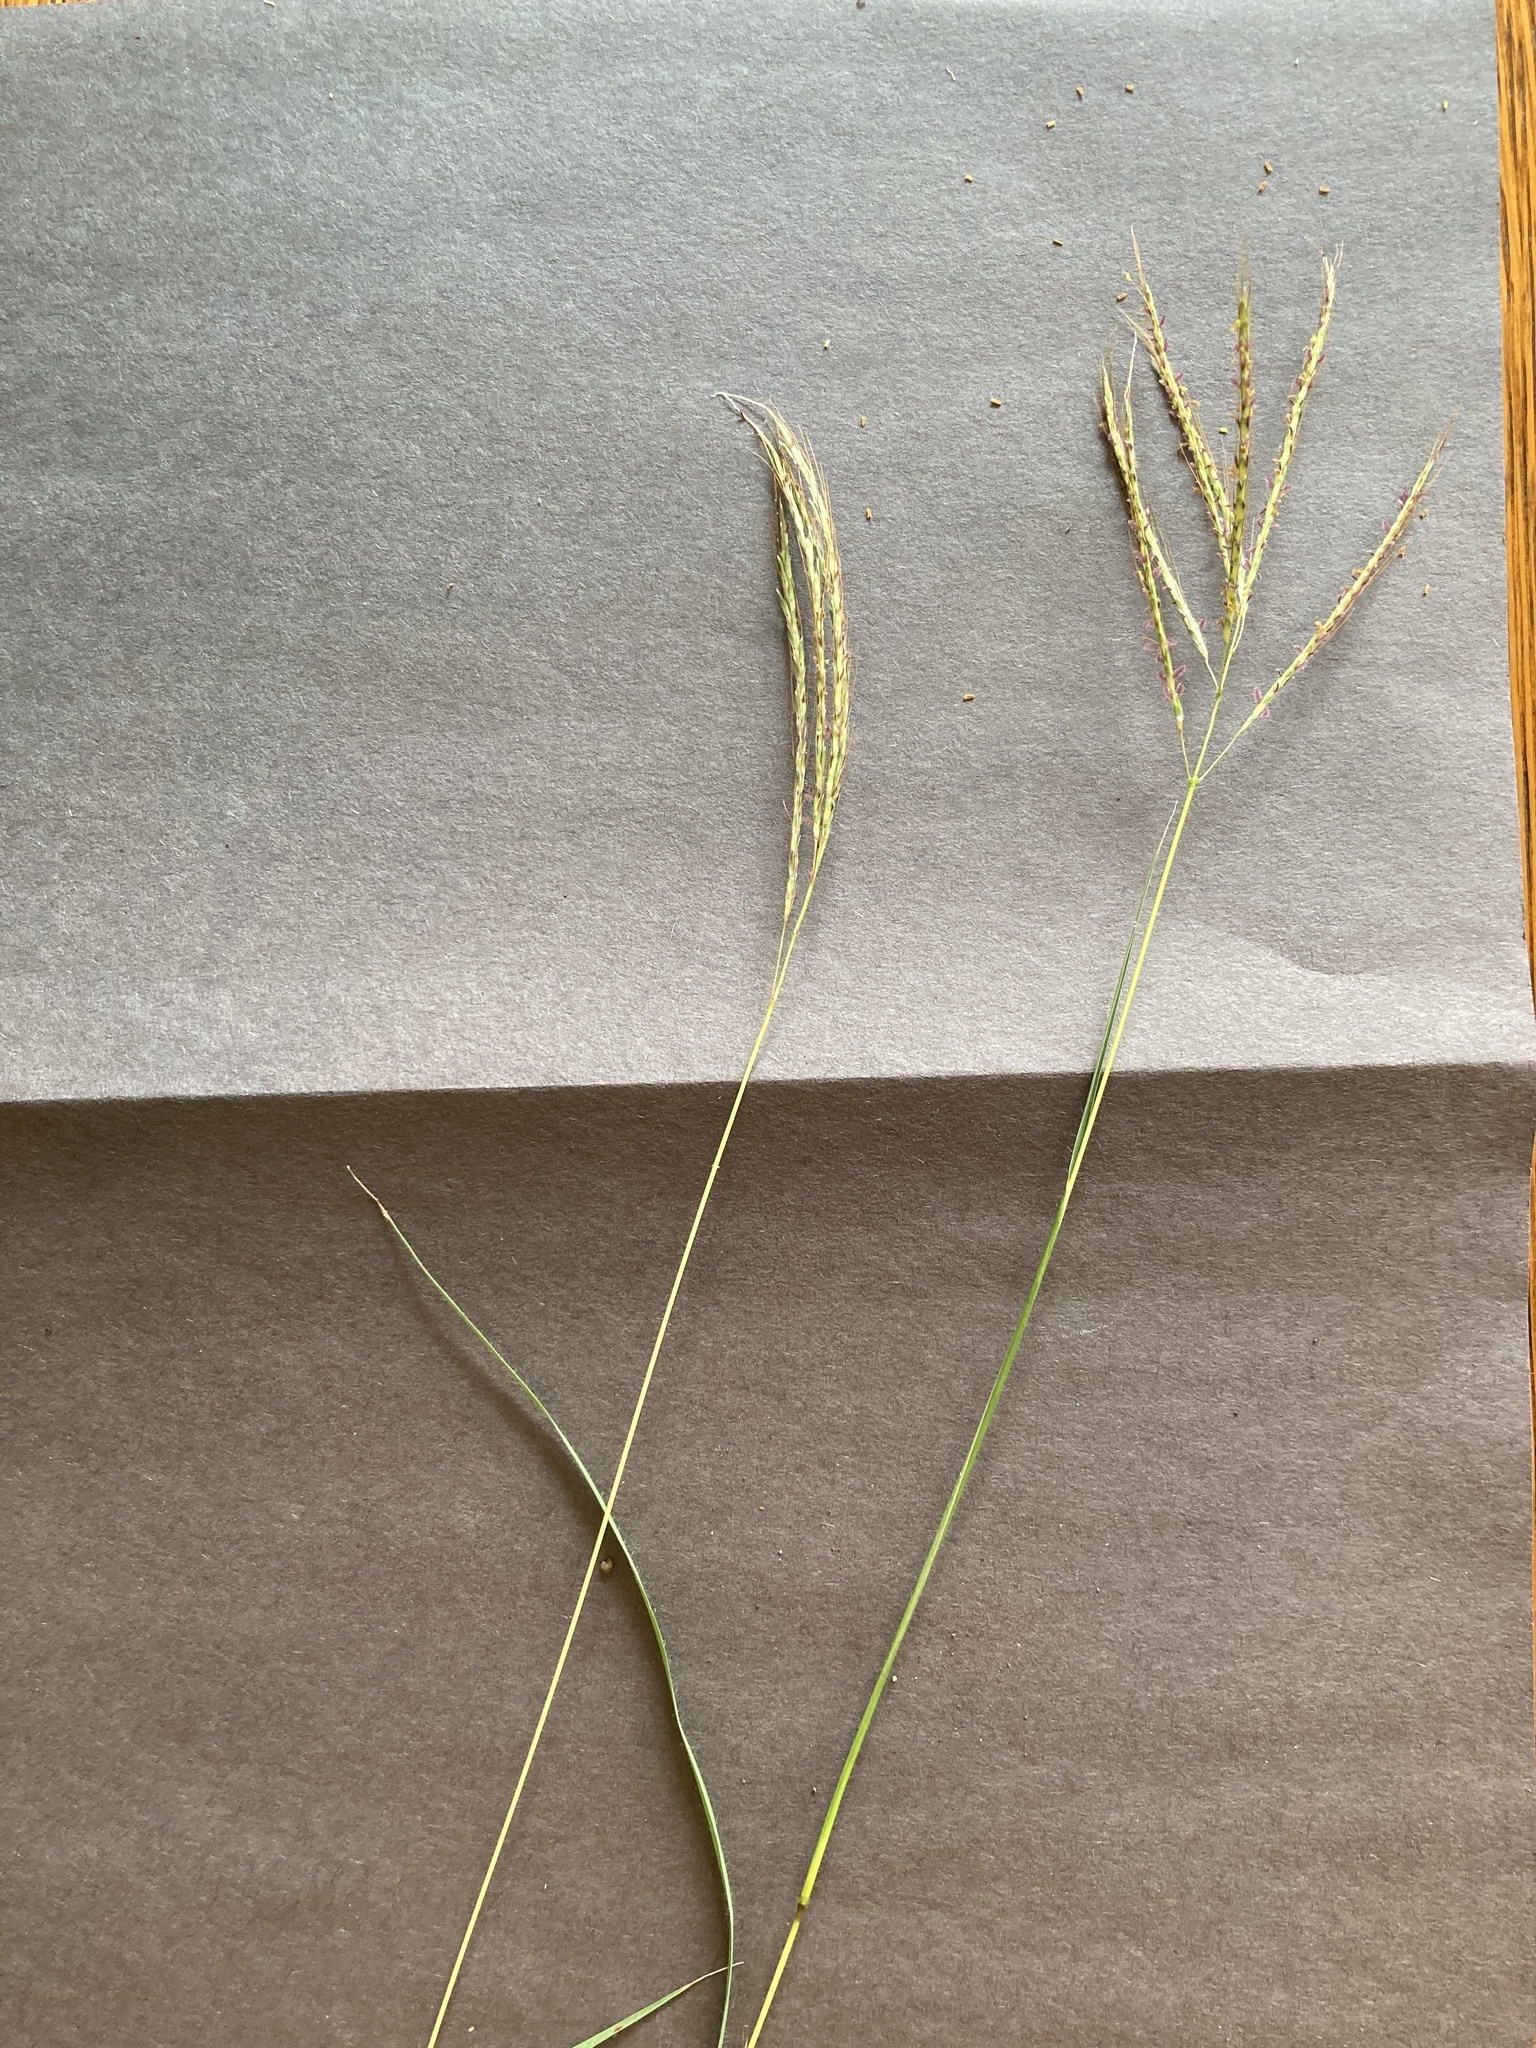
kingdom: Plantae
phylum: Tracheophyta
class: Liliopsida
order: Poales
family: Poaceae
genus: Bothriochloa
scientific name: Bothriochloa ischaemum
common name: Yellow bluestem
